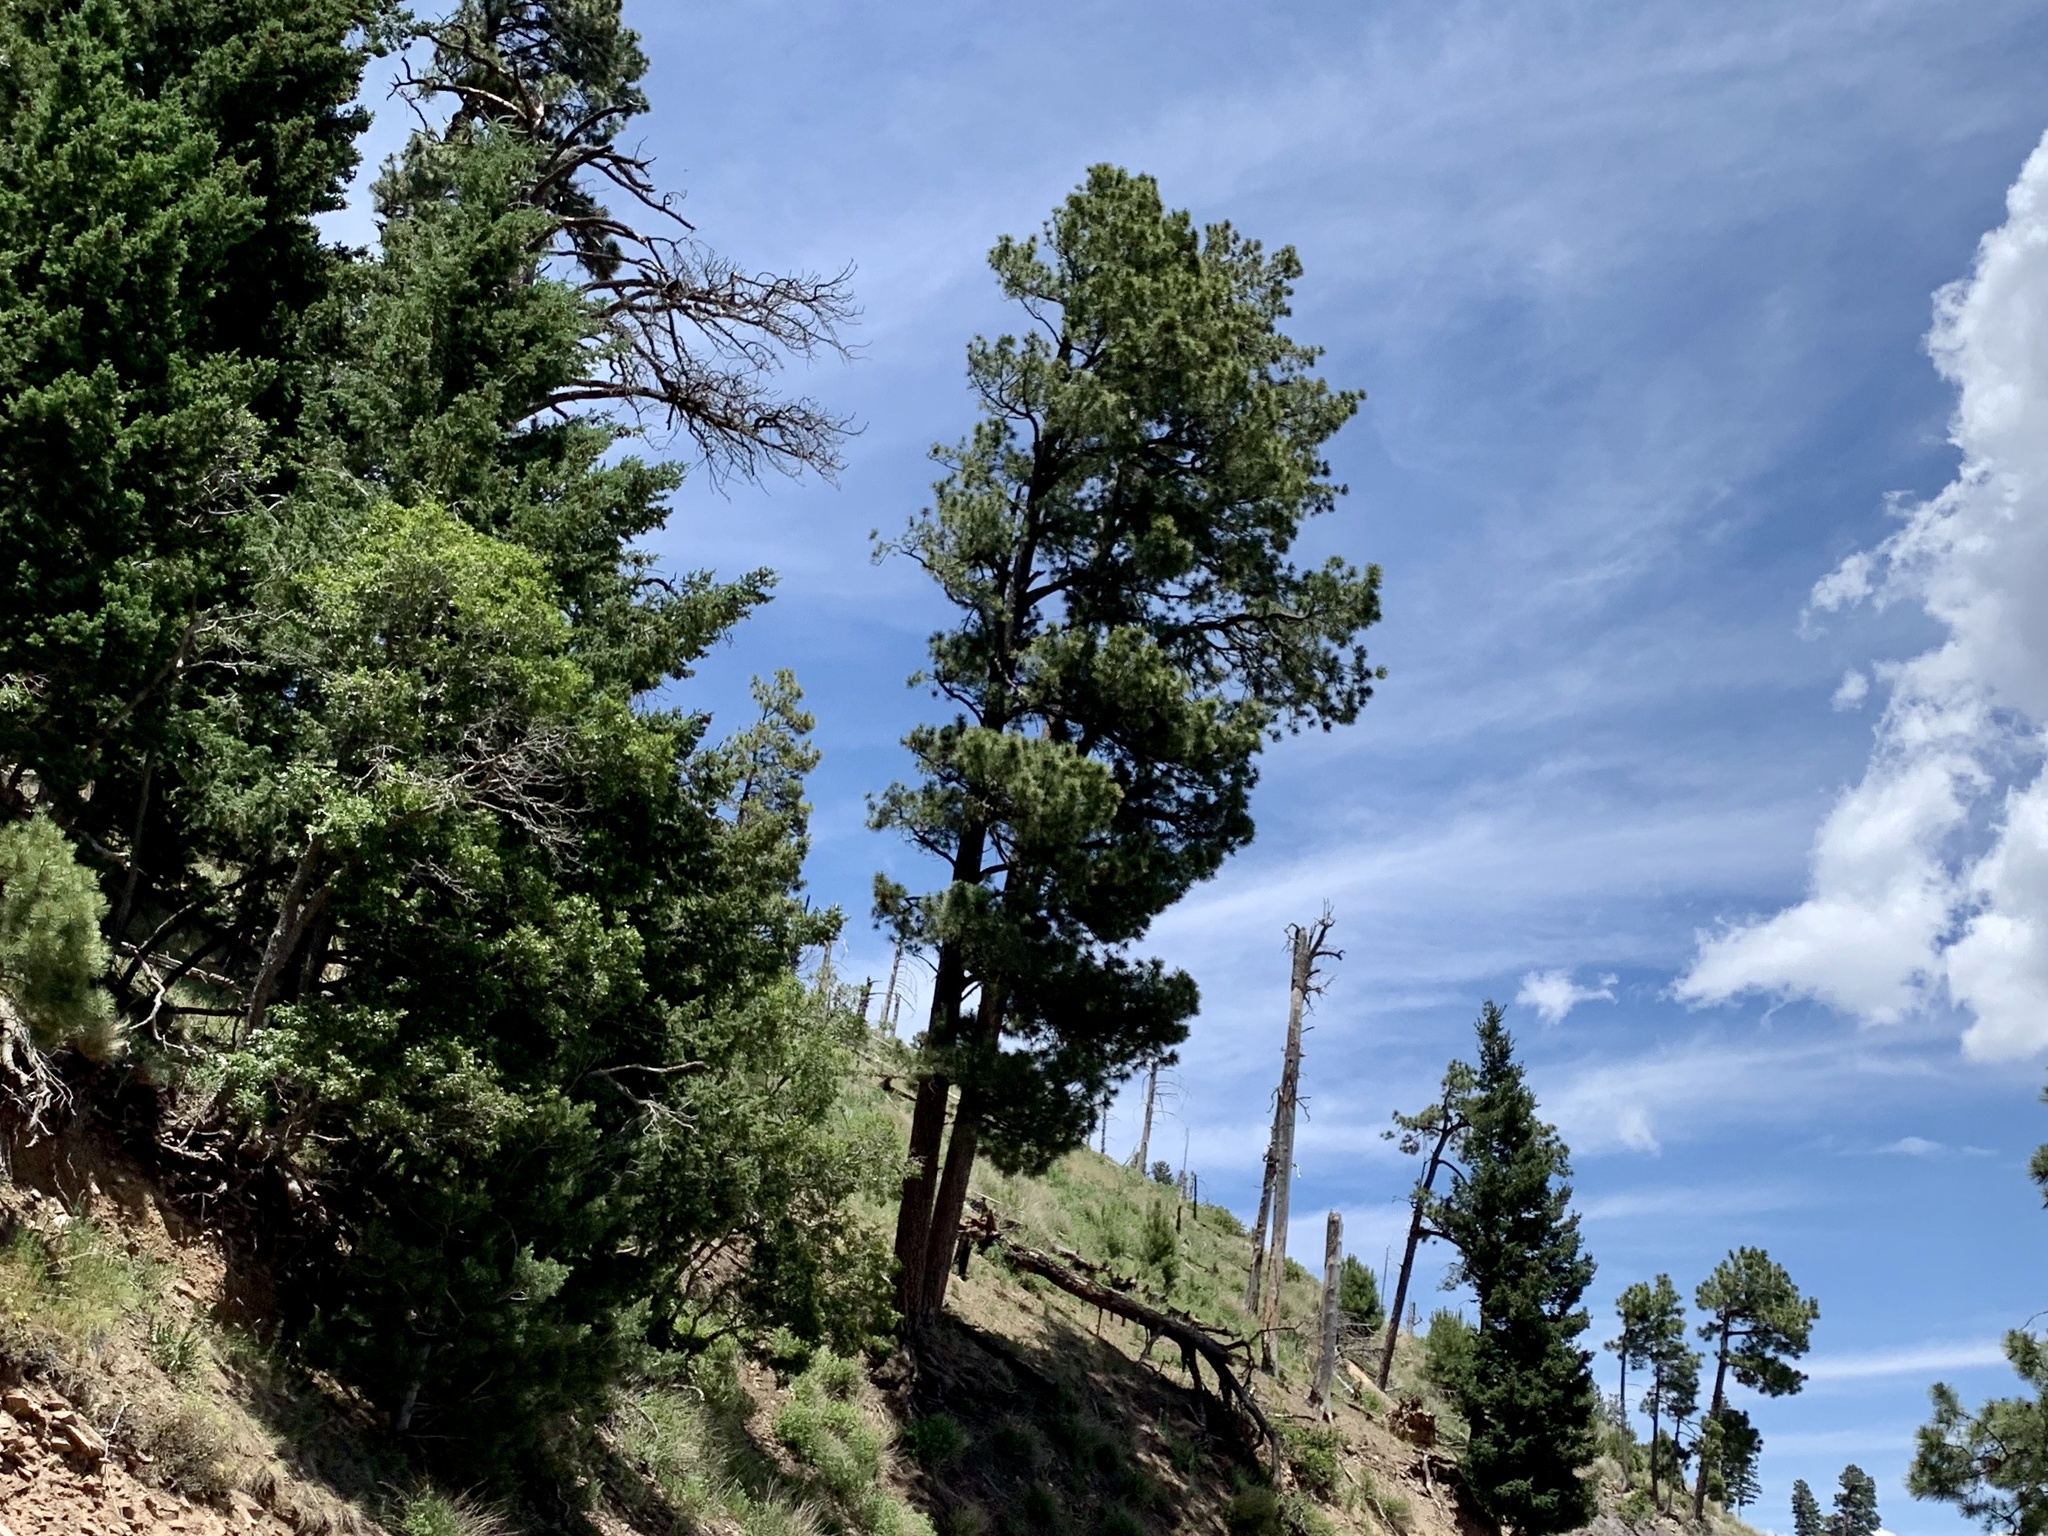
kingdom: Plantae
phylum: Tracheophyta
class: Pinopsida
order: Pinales
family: Pinaceae
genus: Pinus
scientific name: Pinus ponderosa
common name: Western yellow-pine
